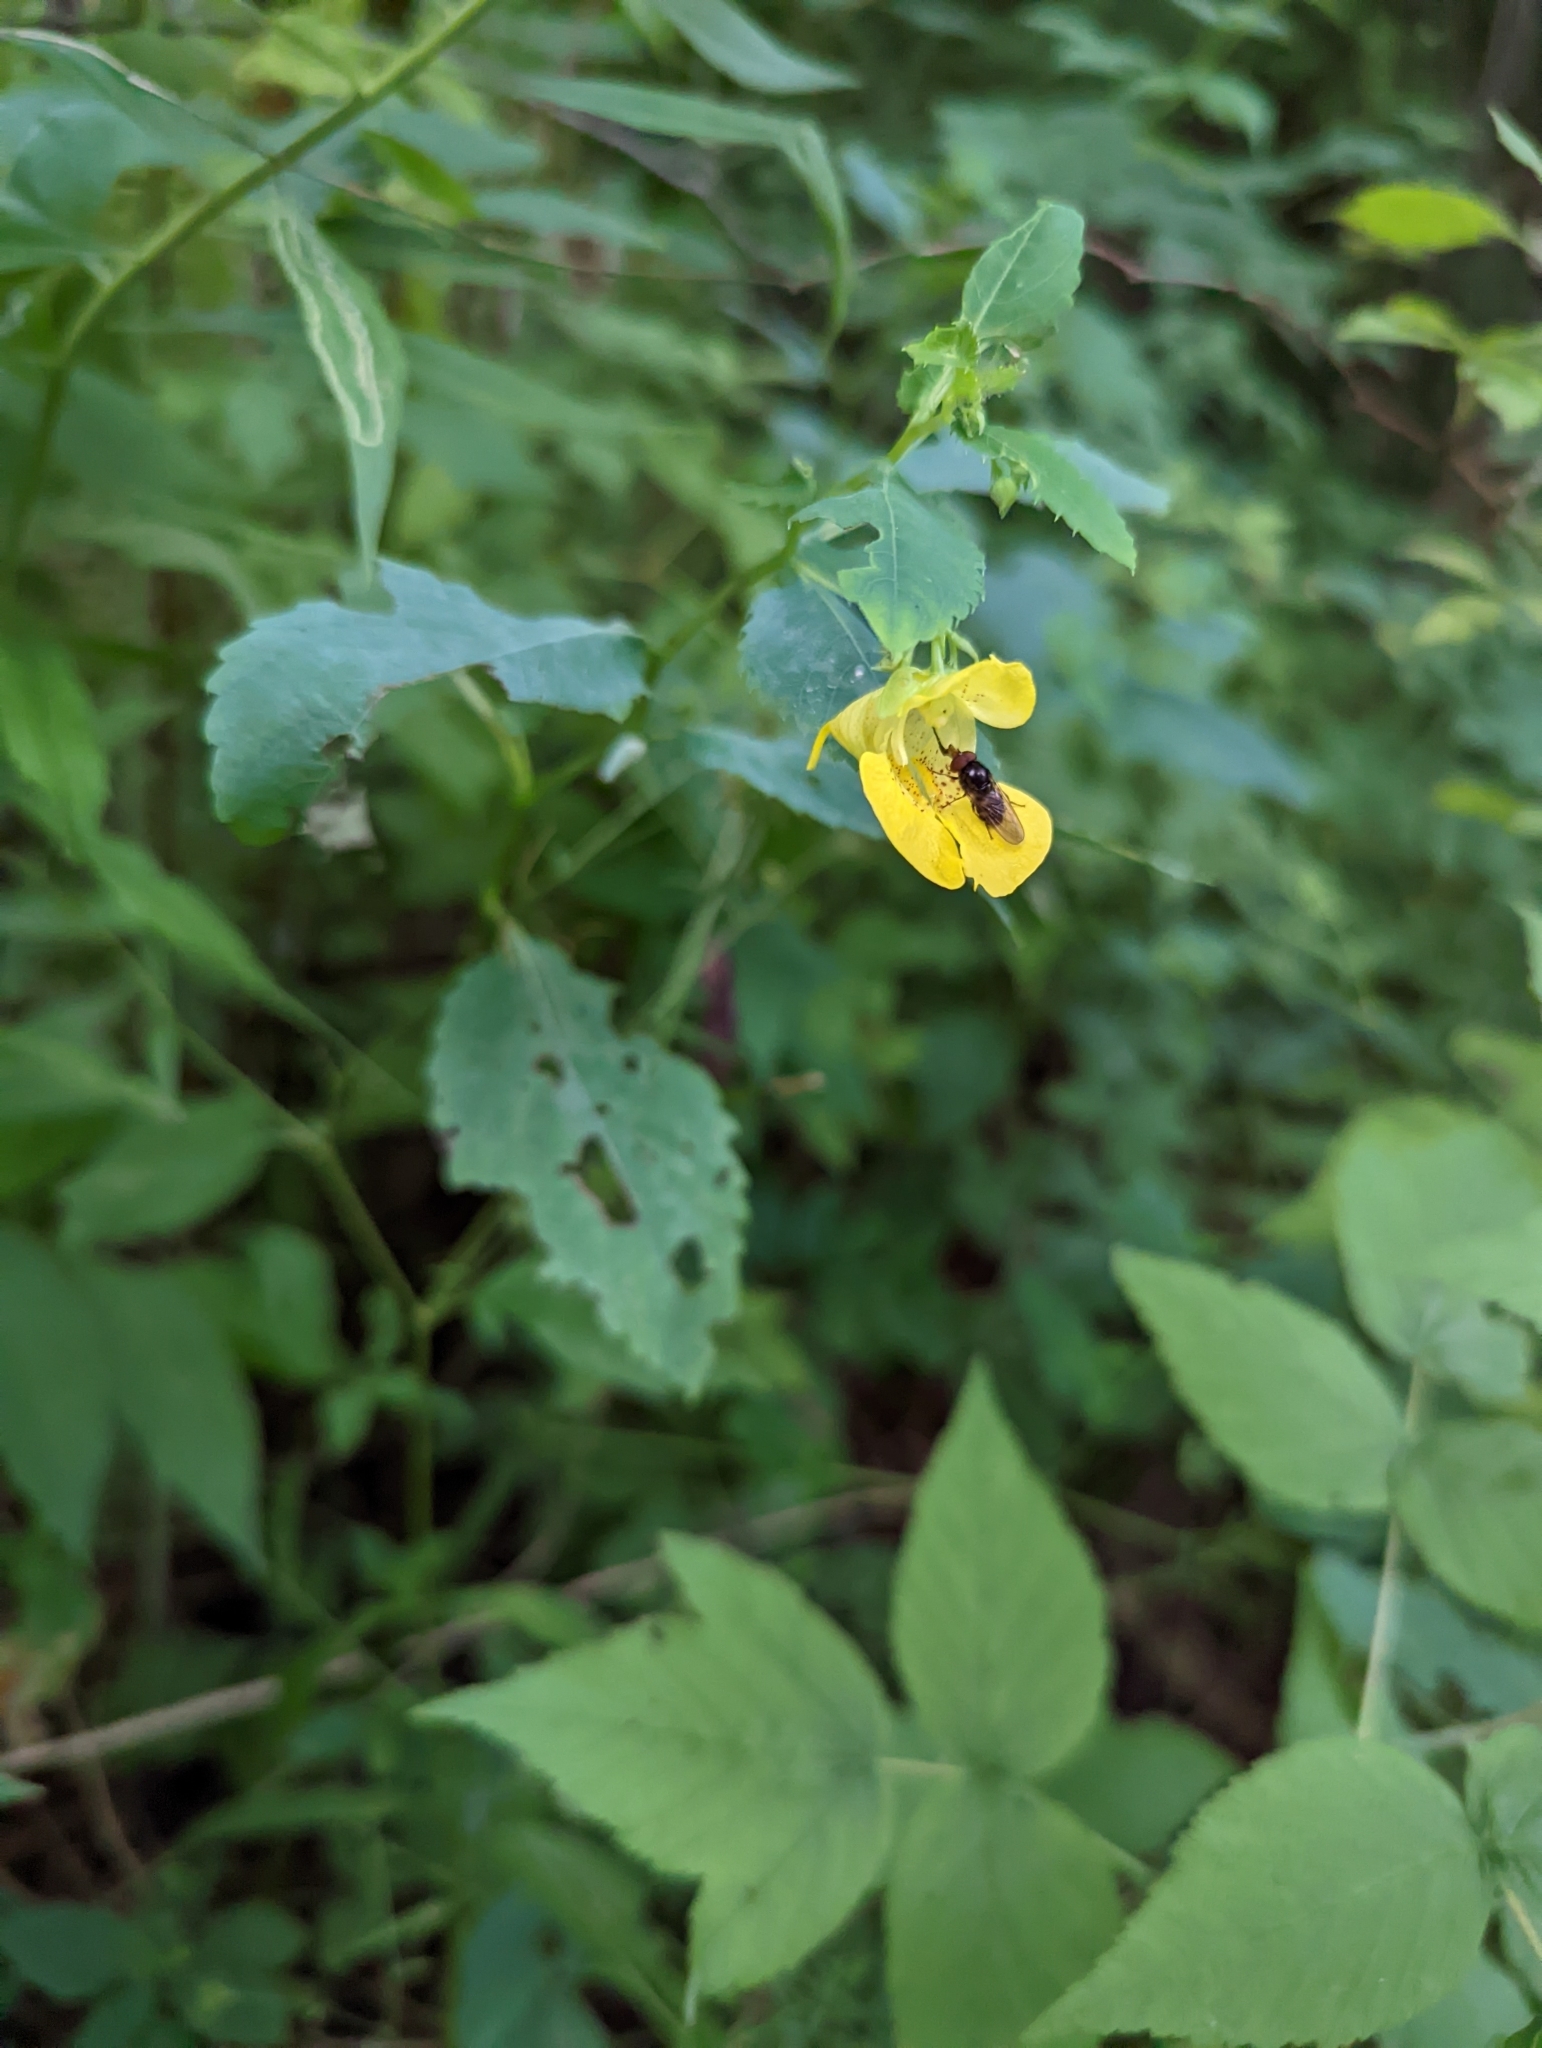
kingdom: Plantae
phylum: Tracheophyta
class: Magnoliopsida
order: Ericales
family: Balsaminaceae
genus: Impatiens
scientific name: Impatiens pallida
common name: Pale snapweed
